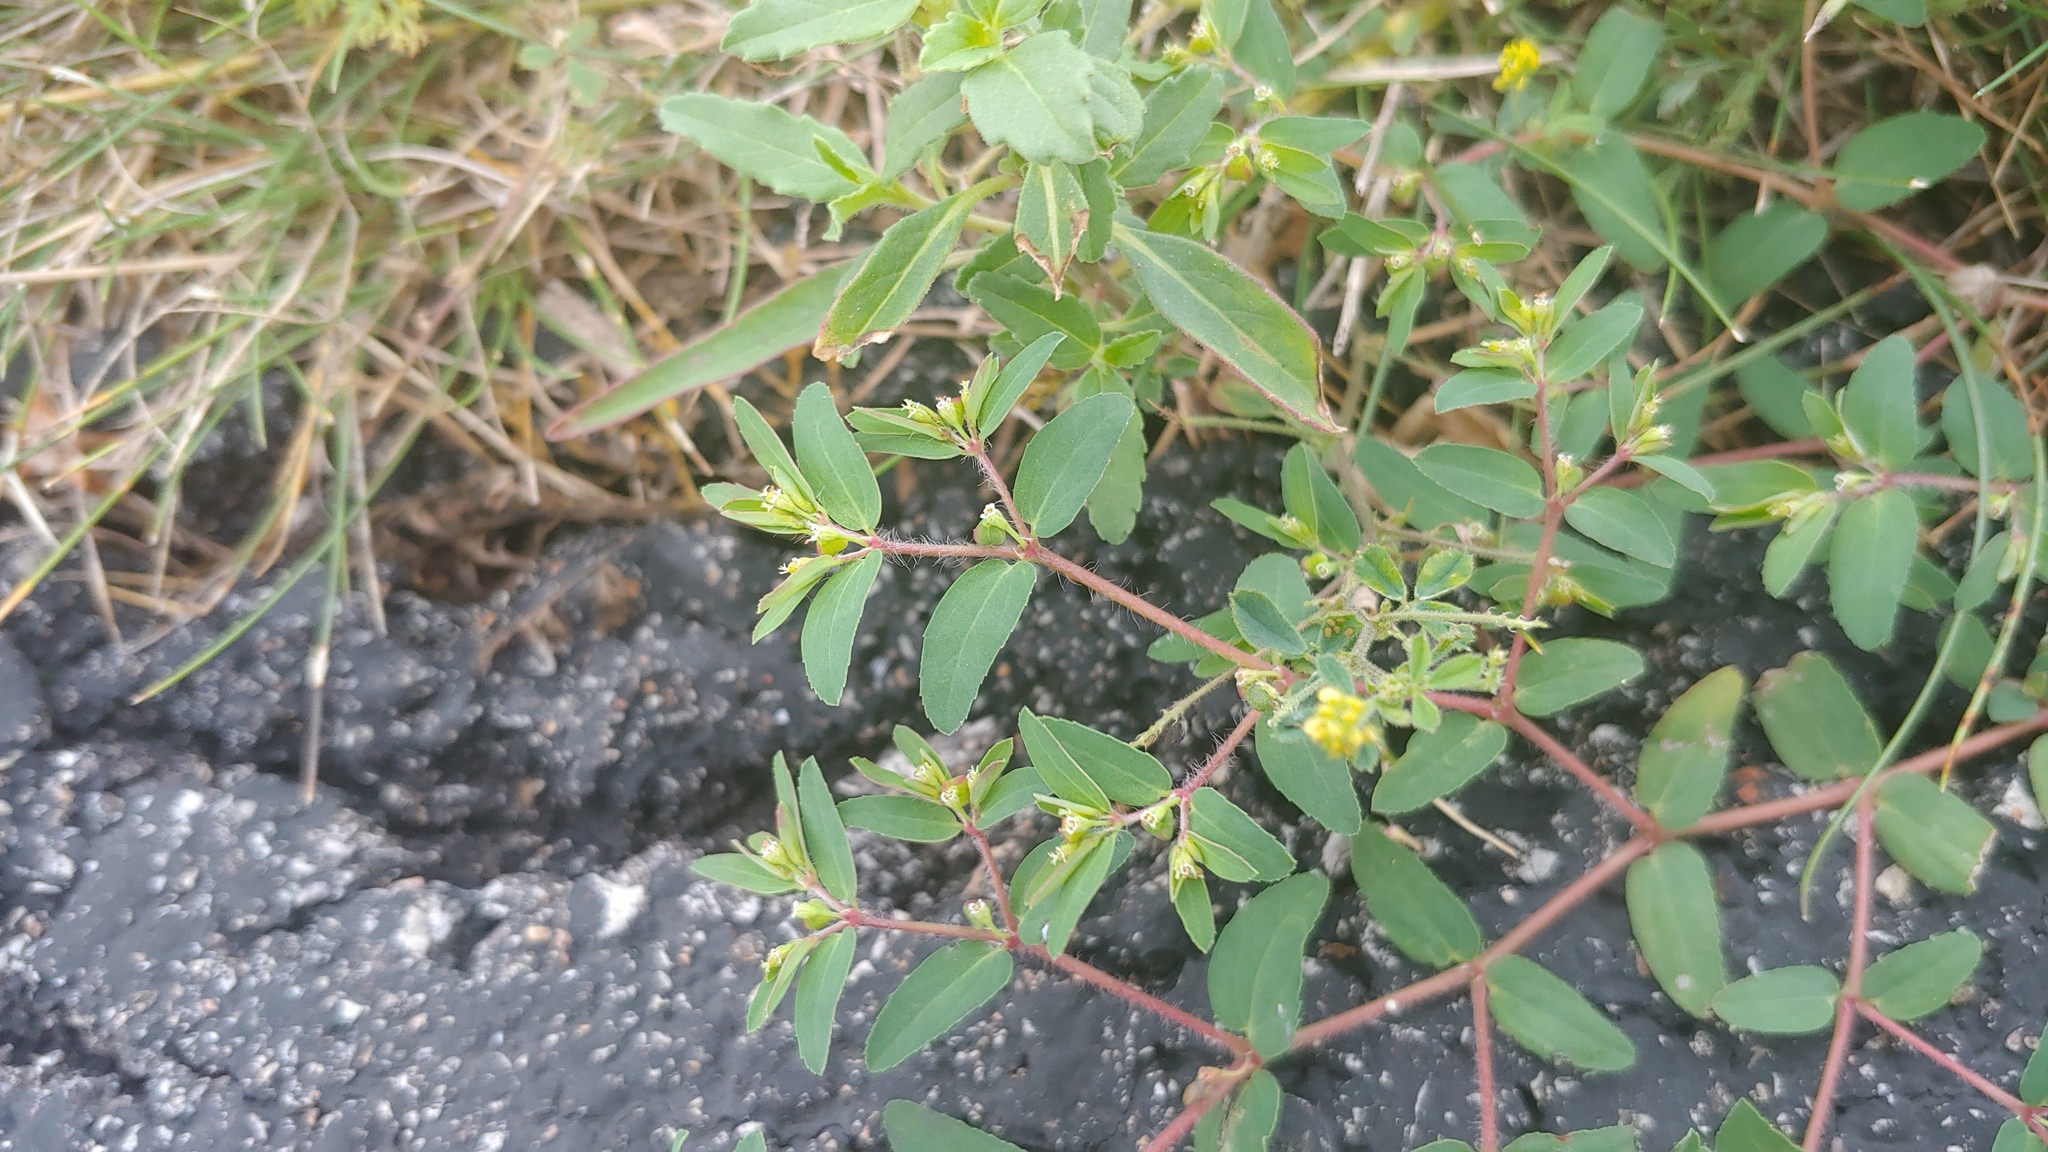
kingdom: Plantae
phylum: Tracheophyta
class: Magnoliopsida
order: Malpighiales
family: Euphorbiaceae
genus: Euphorbia
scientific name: Euphorbia vermiculata
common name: Hairy spurge
